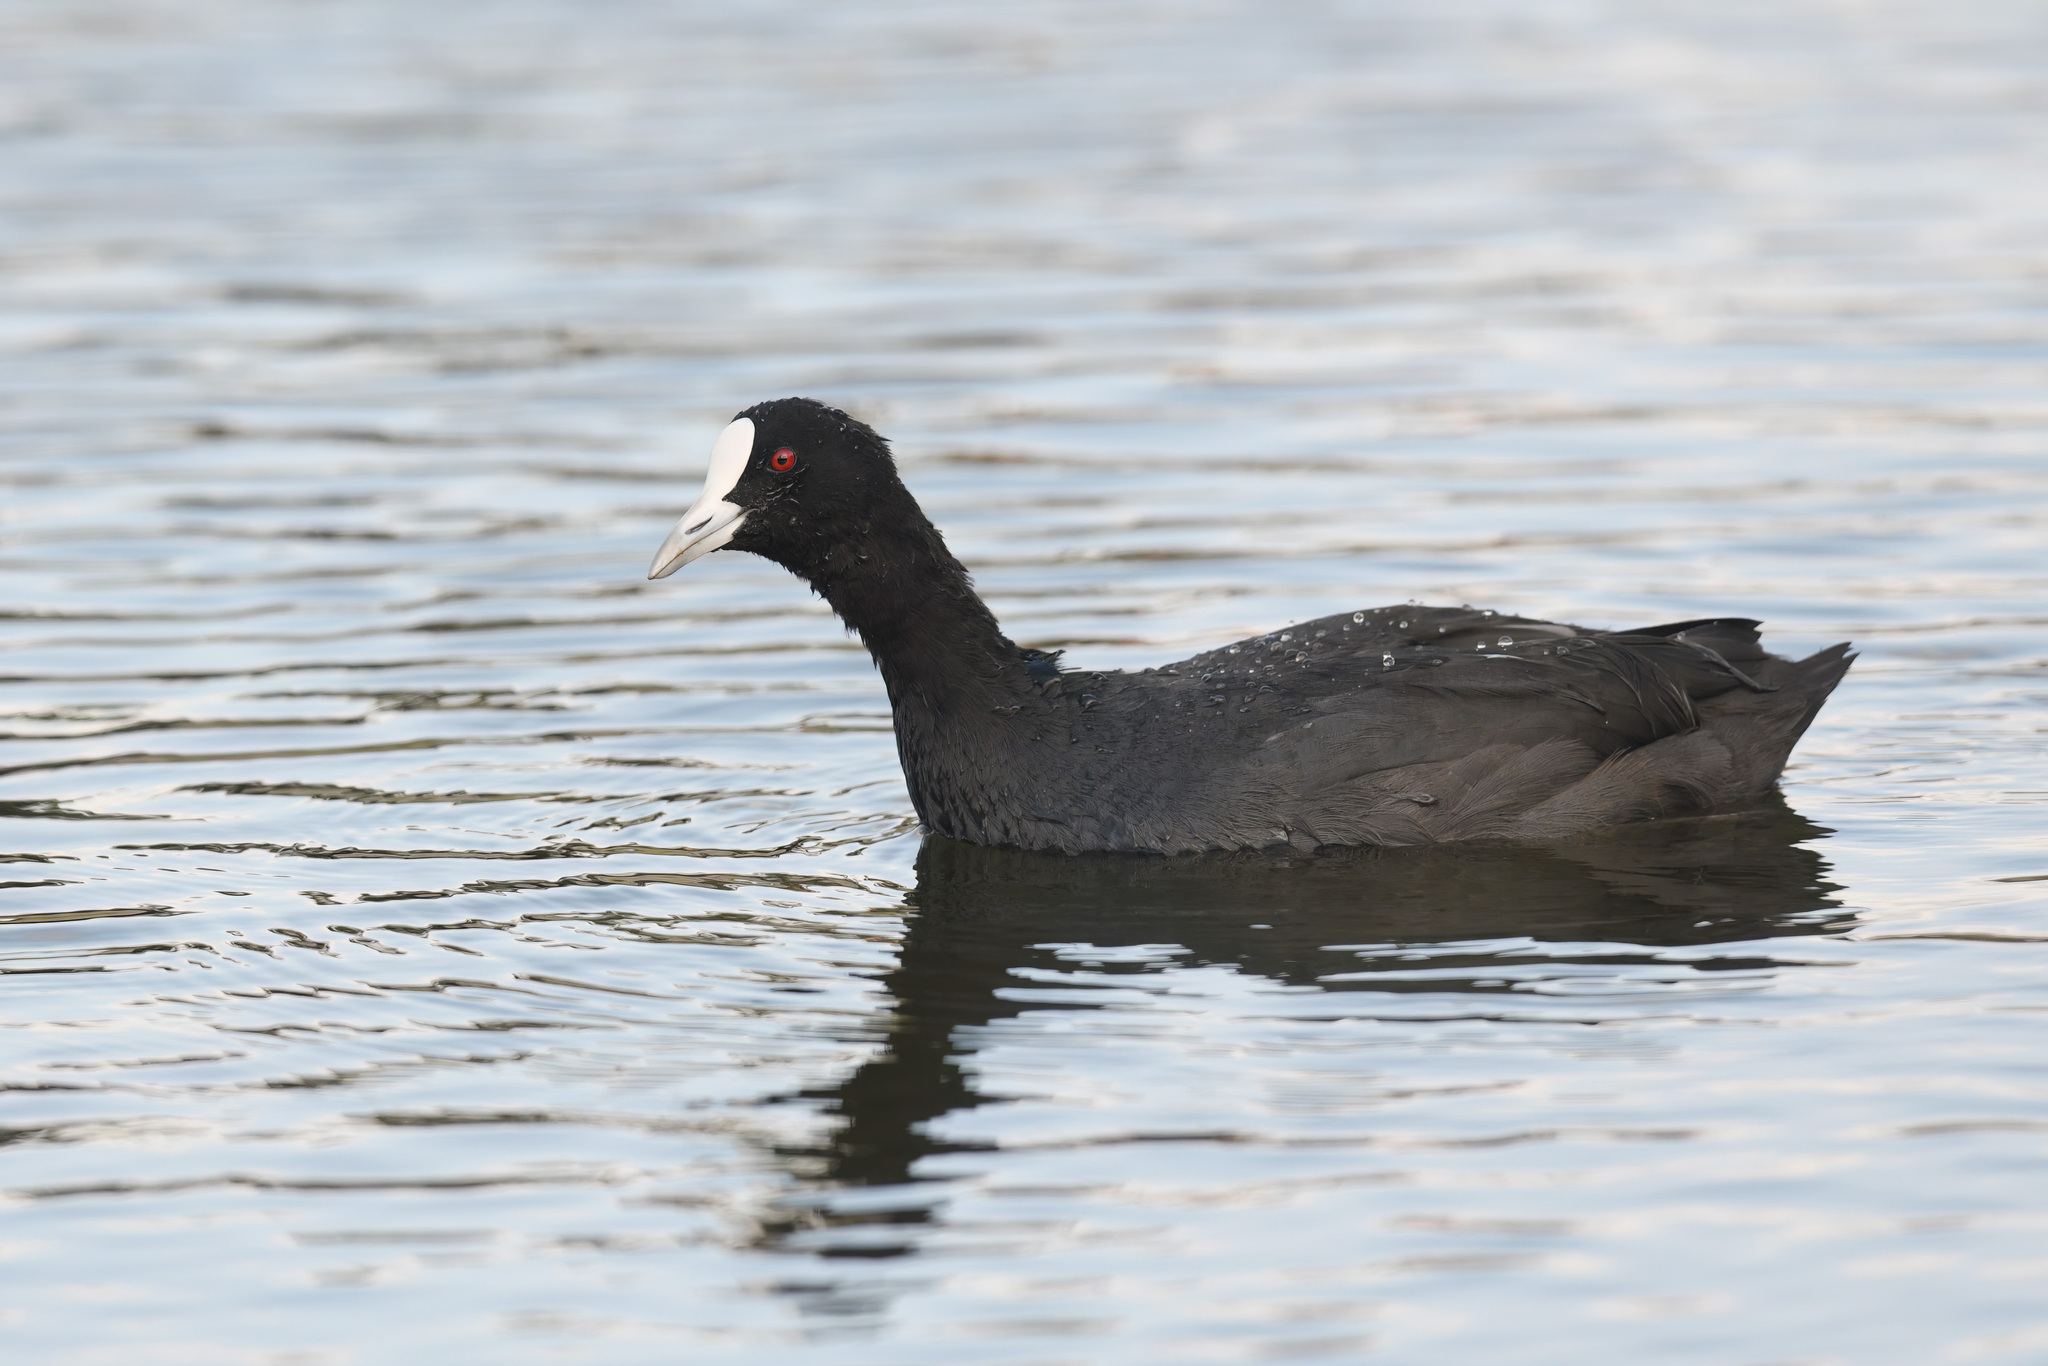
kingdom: Animalia
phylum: Chordata
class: Aves
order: Gruiformes
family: Rallidae
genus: Fulica
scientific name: Fulica atra
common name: Eurasian coot
